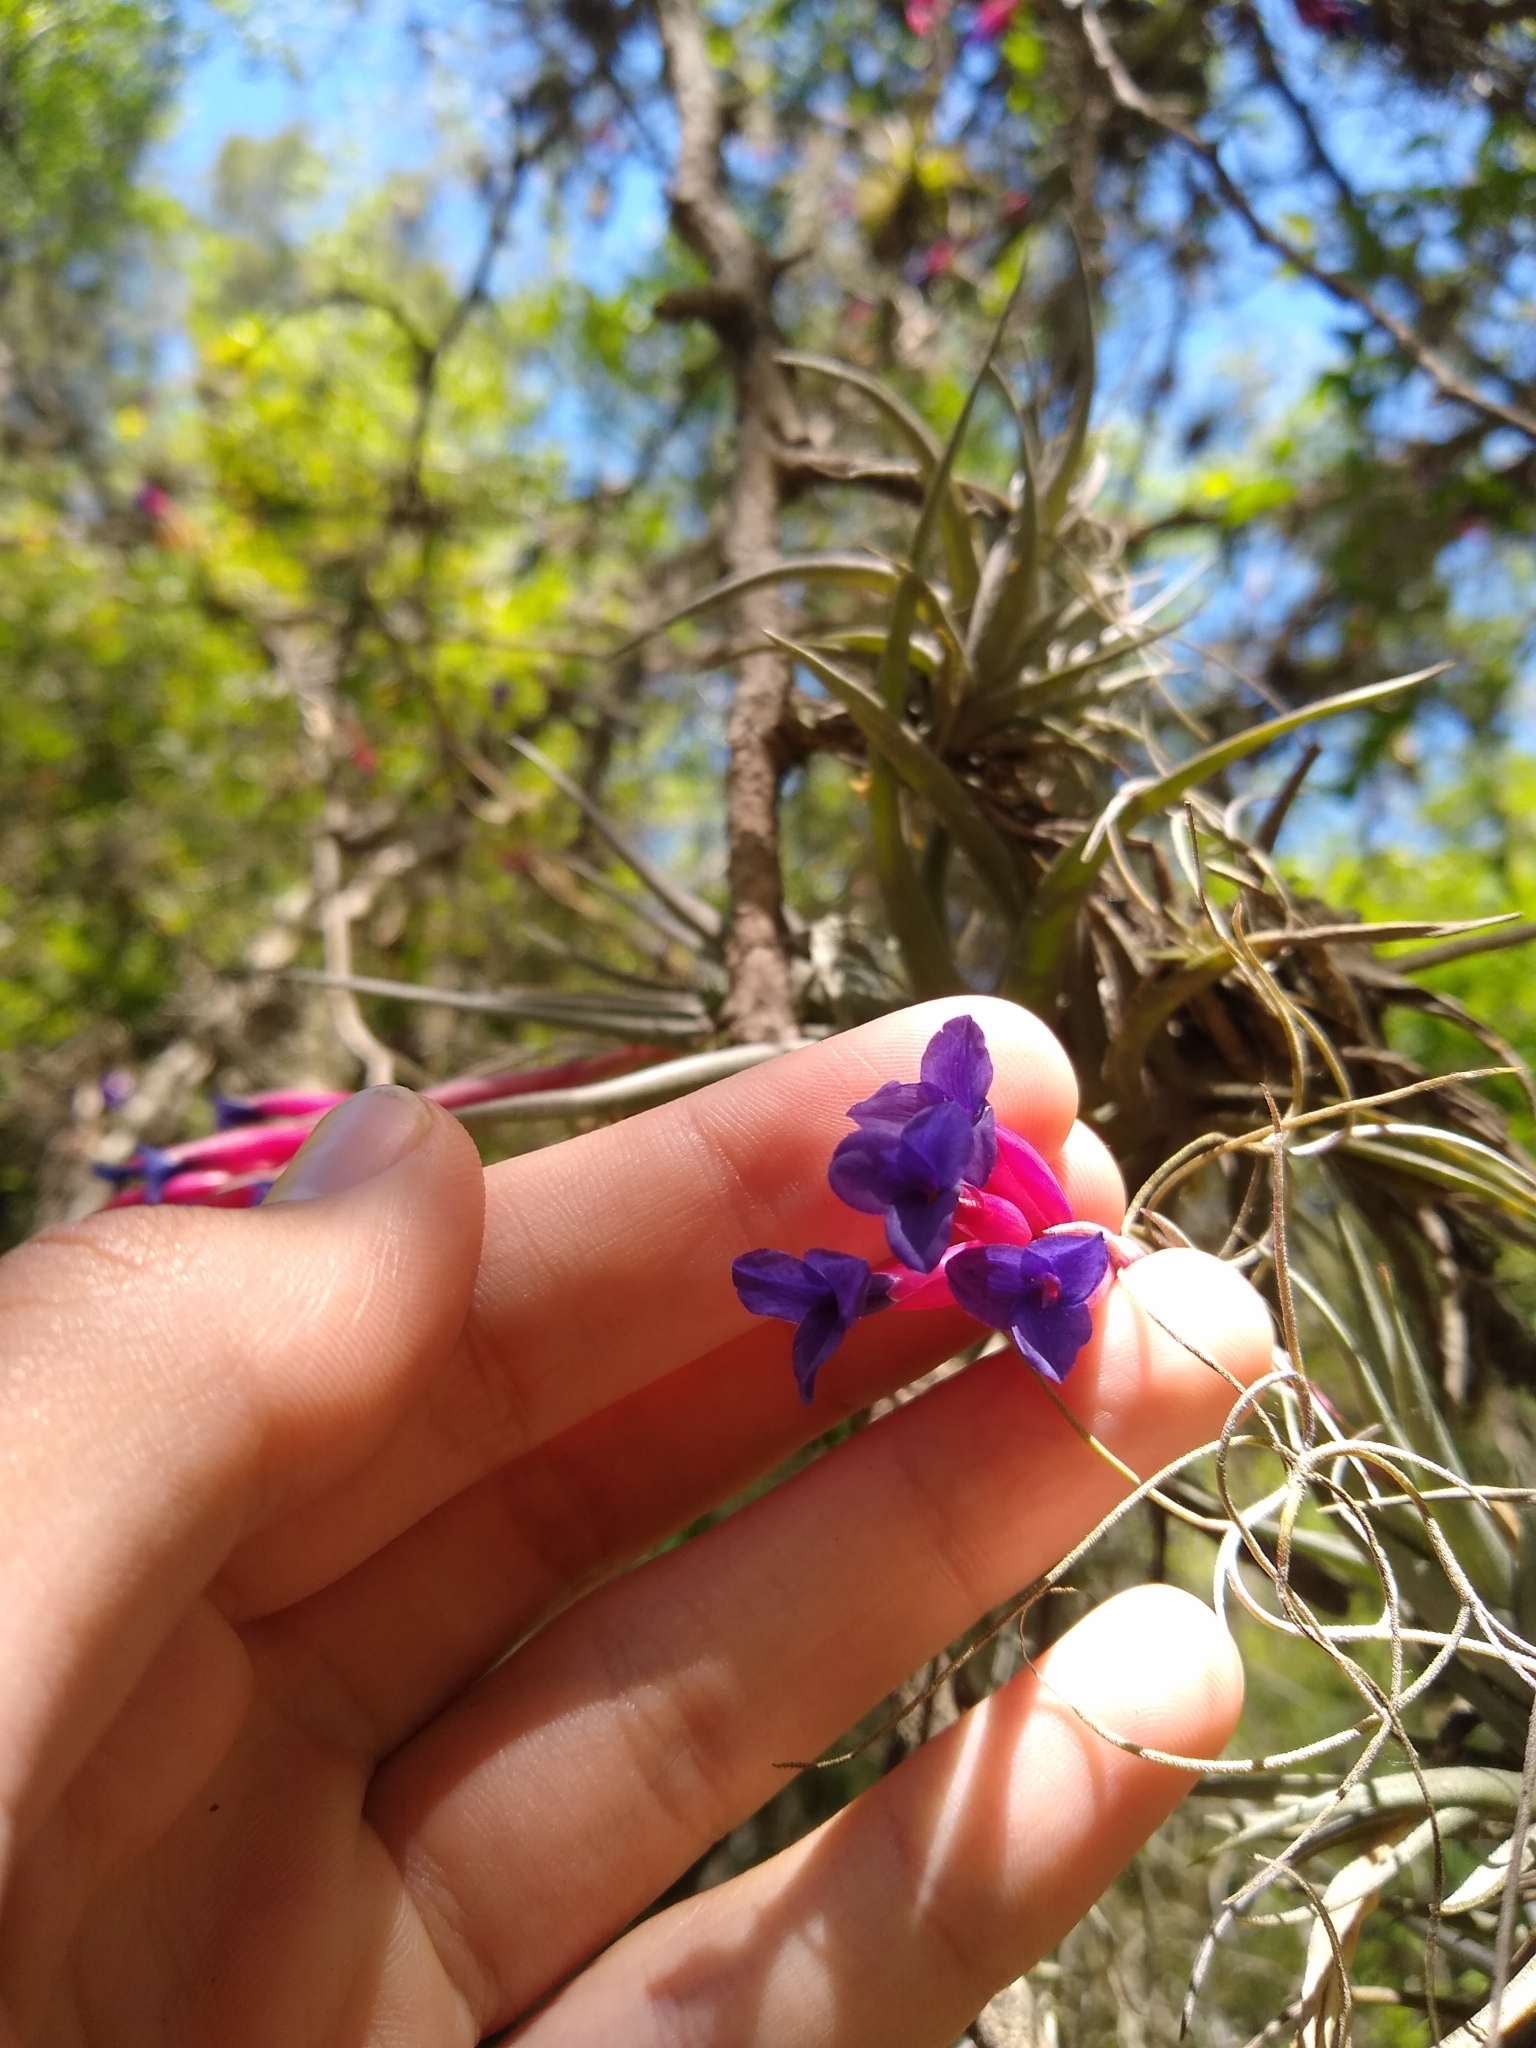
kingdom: Plantae
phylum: Tracheophyta
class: Liliopsida
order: Poales
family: Bromeliaceae
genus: Tillandsia
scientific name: Tillandsia aeranthos
